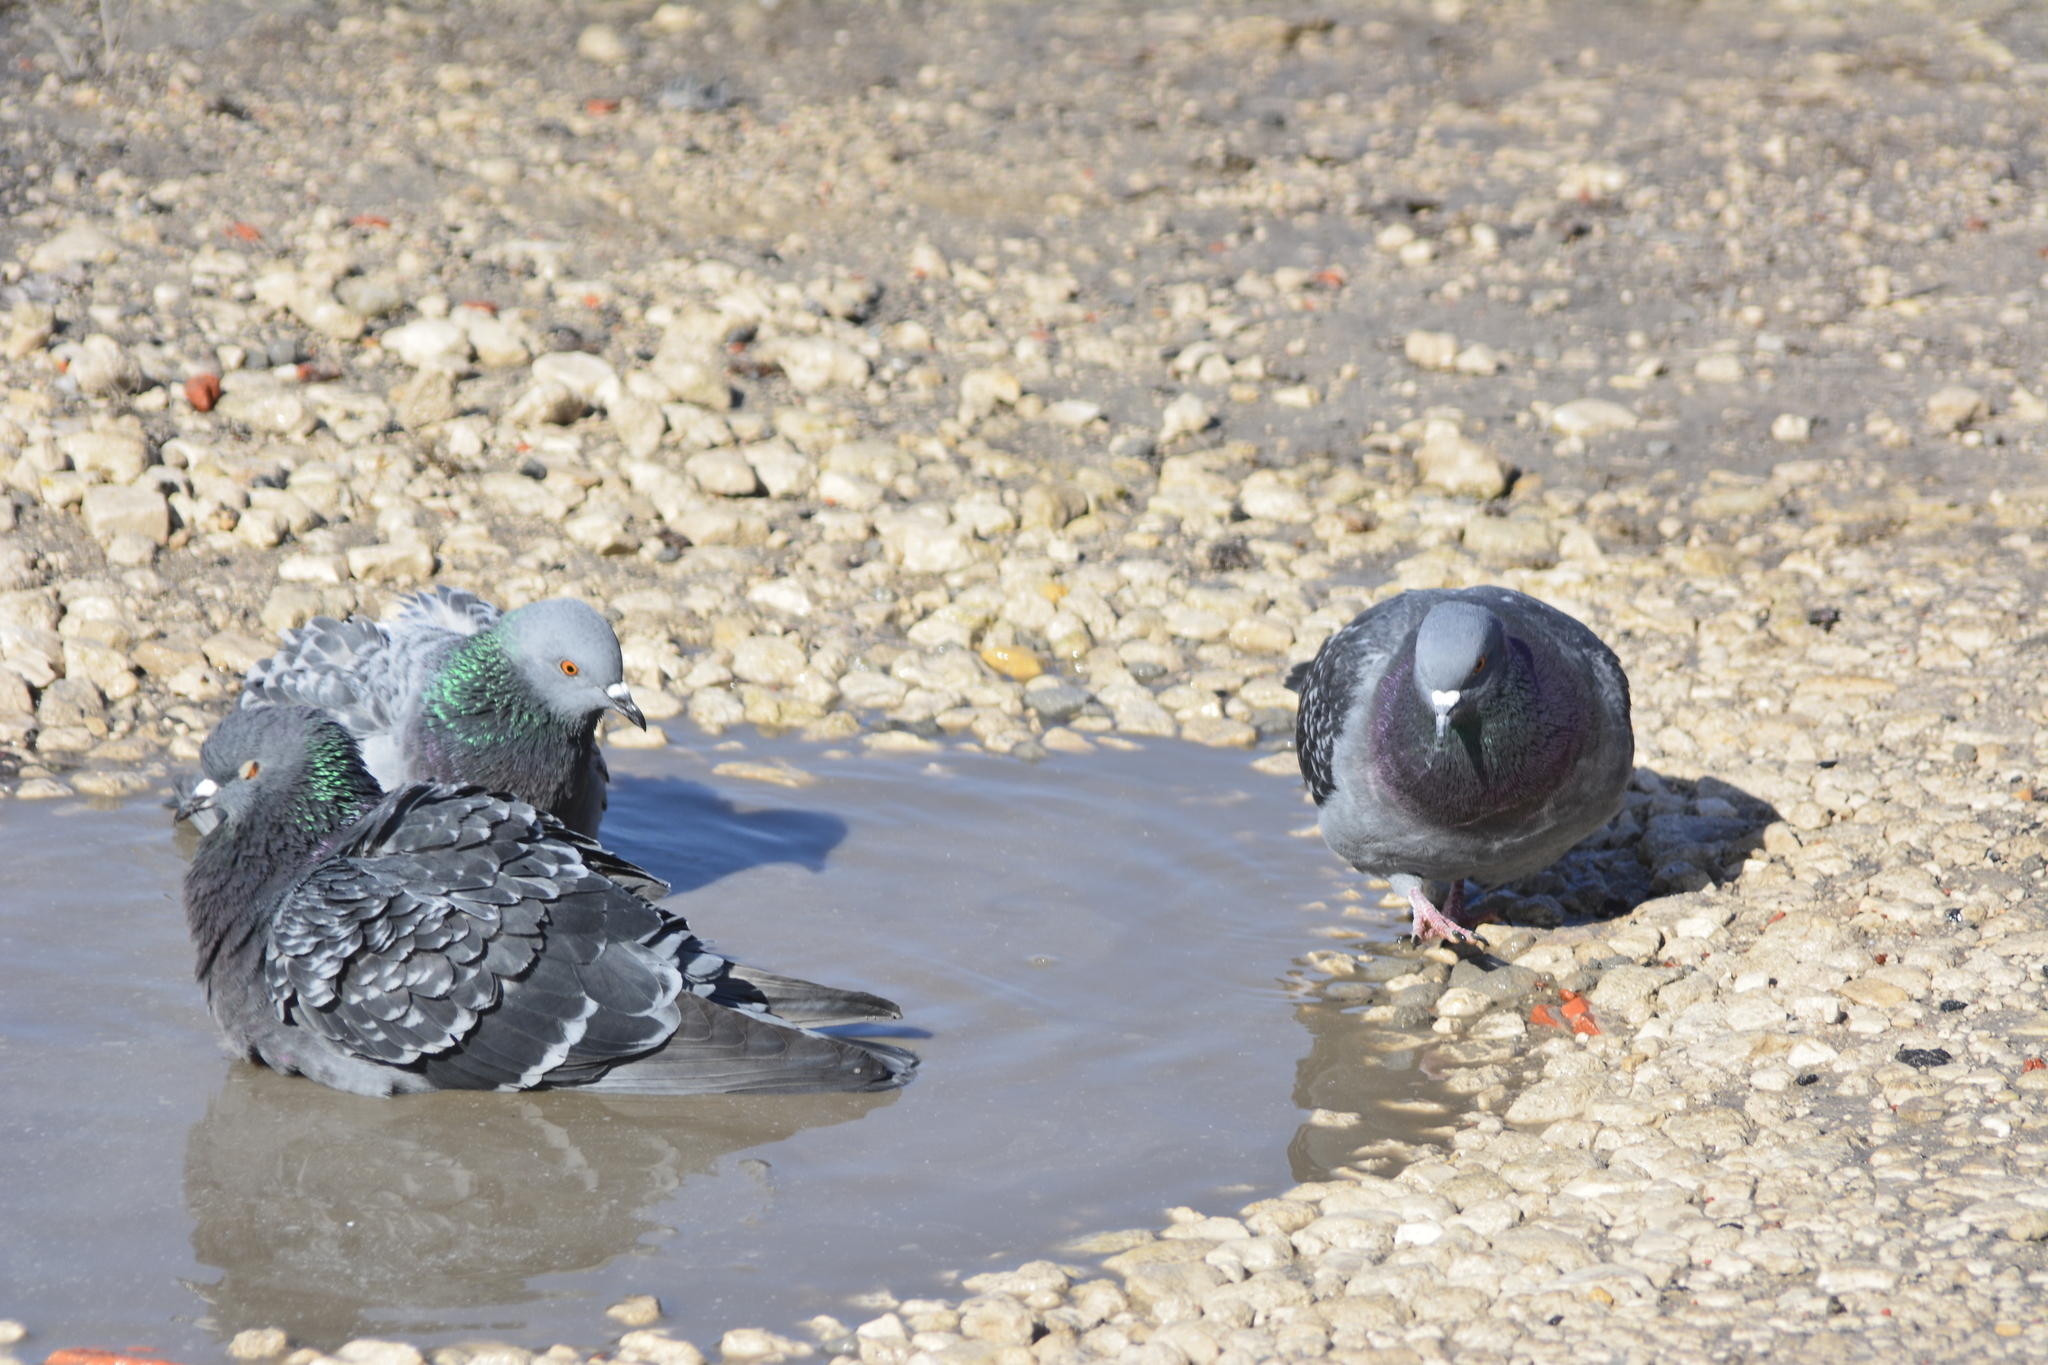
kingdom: Animalia
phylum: Chordata
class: Aves
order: Columbiformes
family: Columbidae
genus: Columba
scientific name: Columba livia
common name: Rock pigeon
